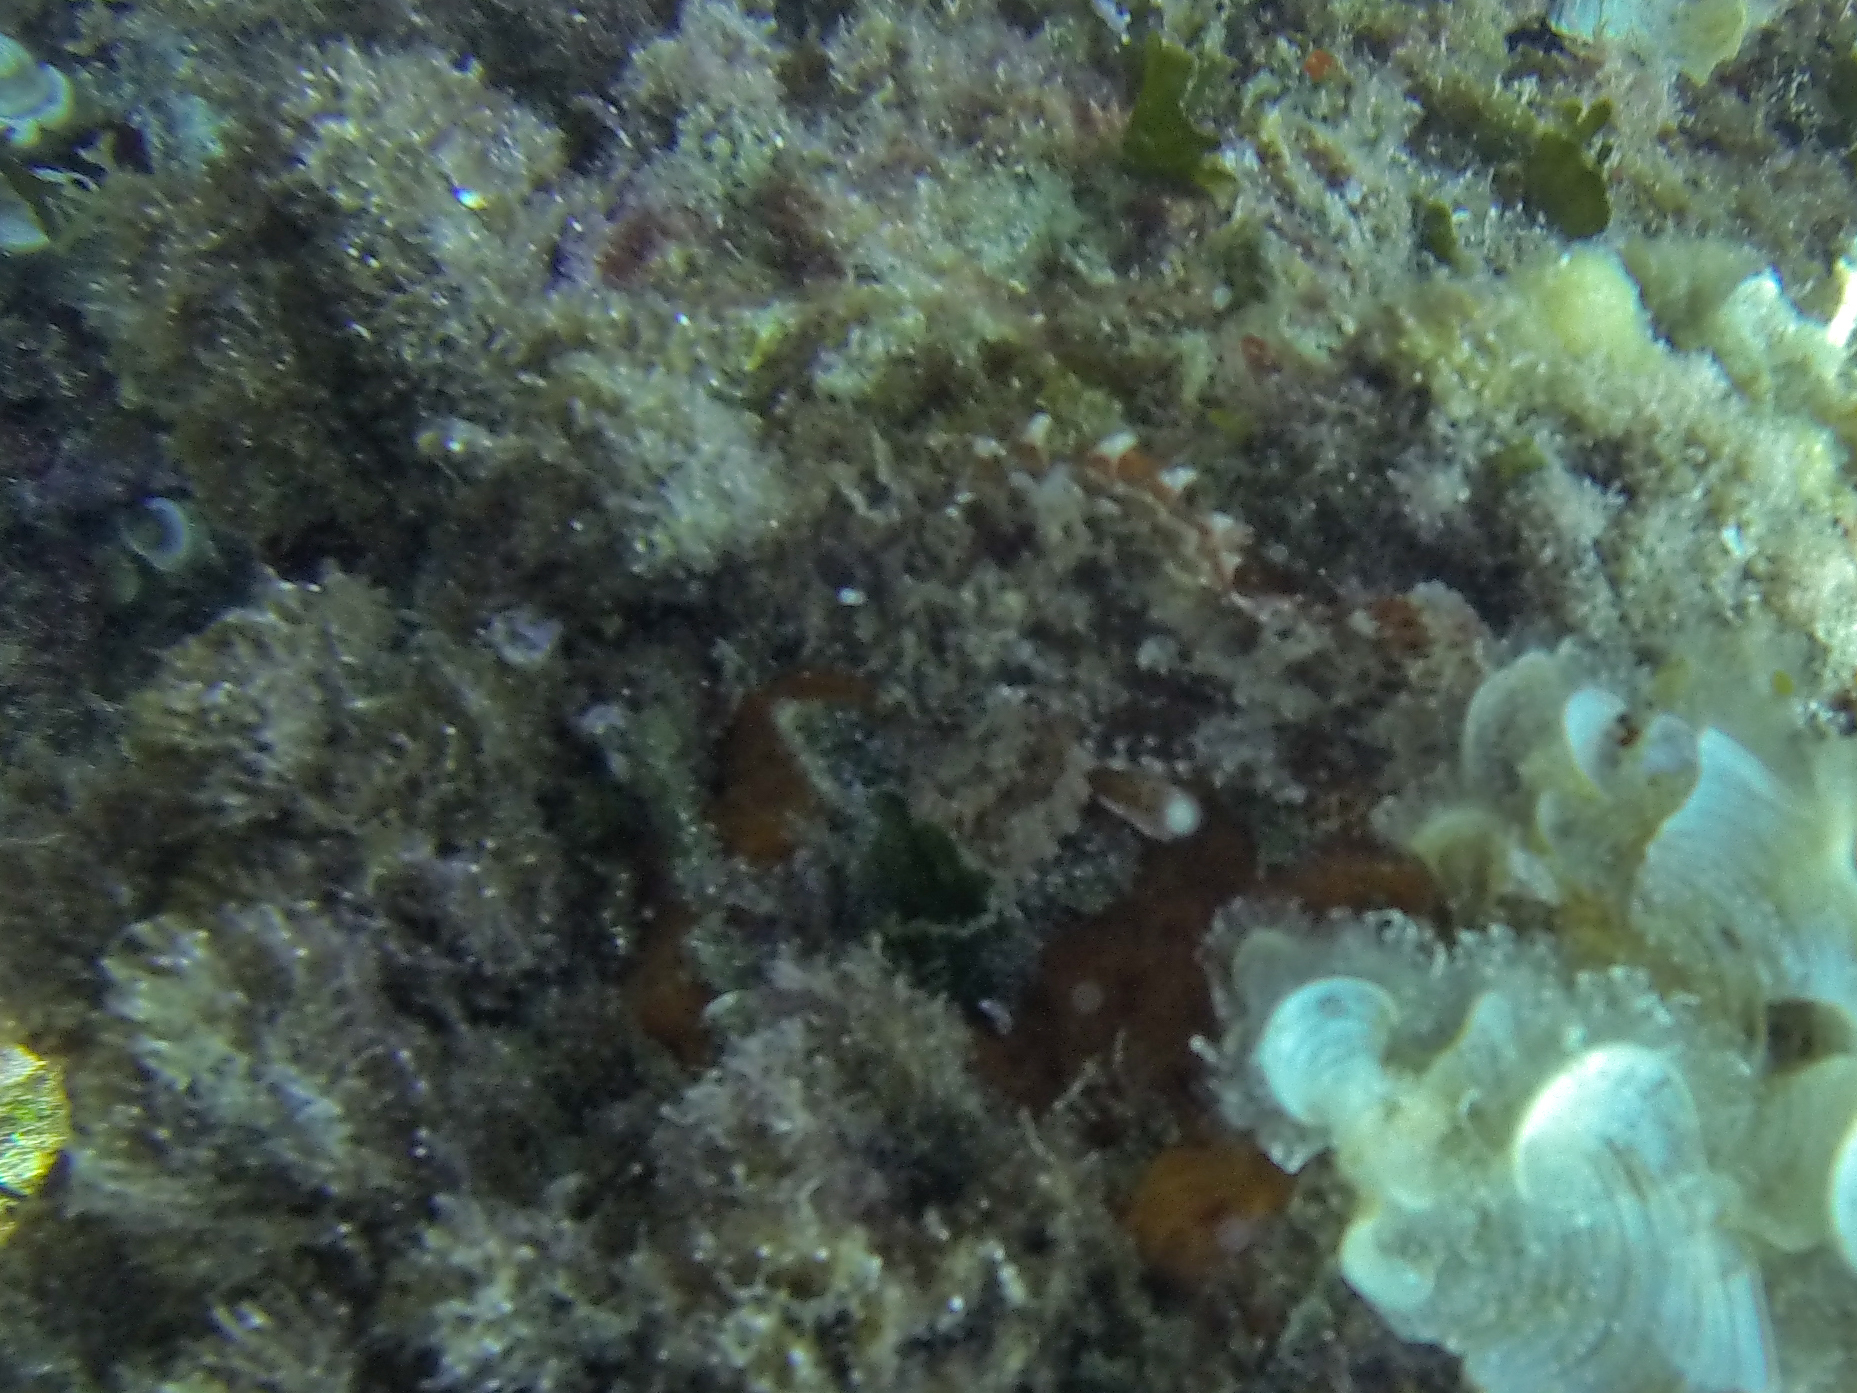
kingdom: Animalia
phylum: Chordata
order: Scorpaeniformes
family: Scorpaenidae
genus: Scorpaena
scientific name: Scorpaena notata
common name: Small red scorpionfish
